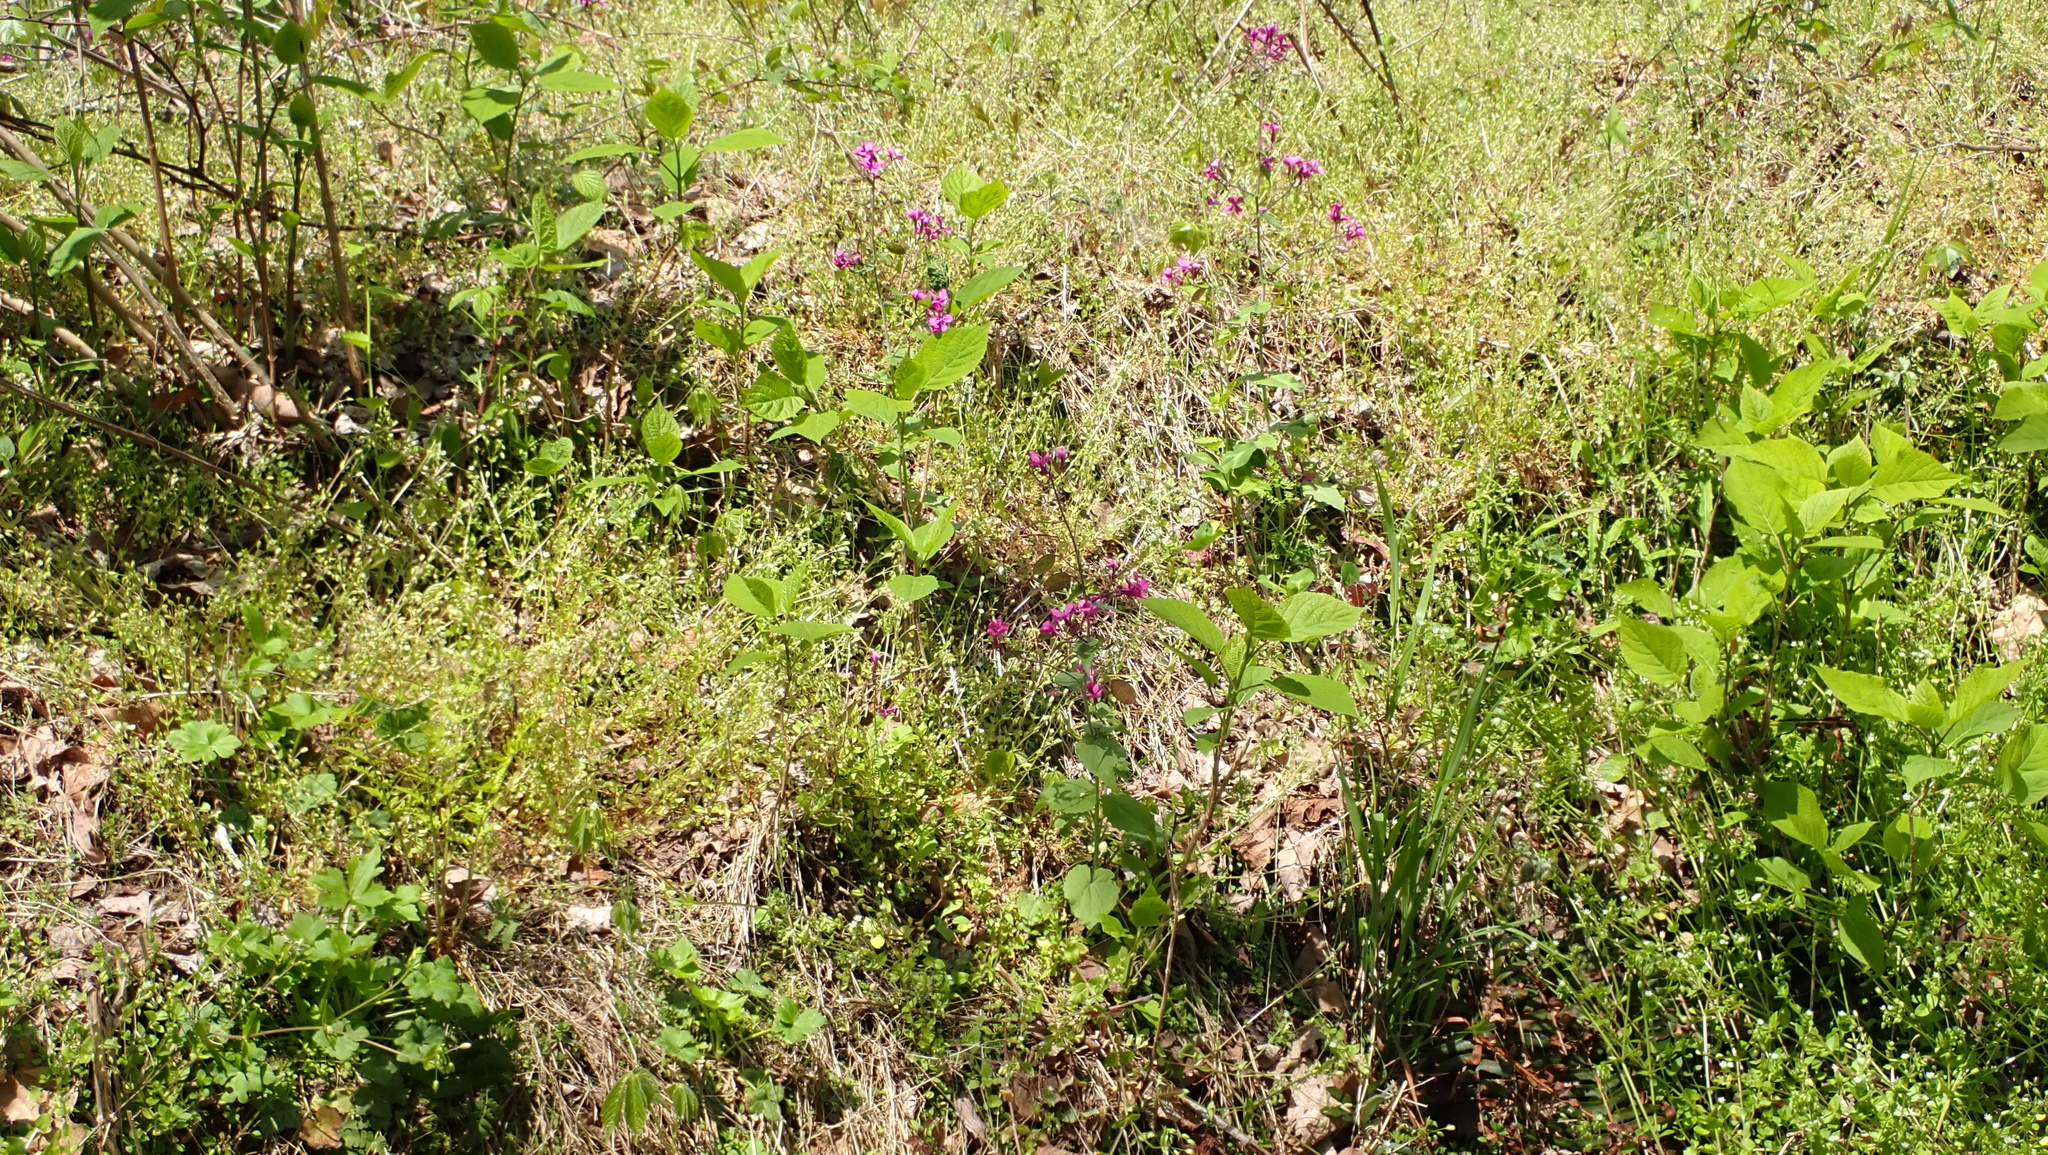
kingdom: Plantae
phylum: Tracheophyta
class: Magnoliopsida
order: Brassicales
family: Brassicaceae
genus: Lunaria
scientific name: Lunaria annua
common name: Honesty
